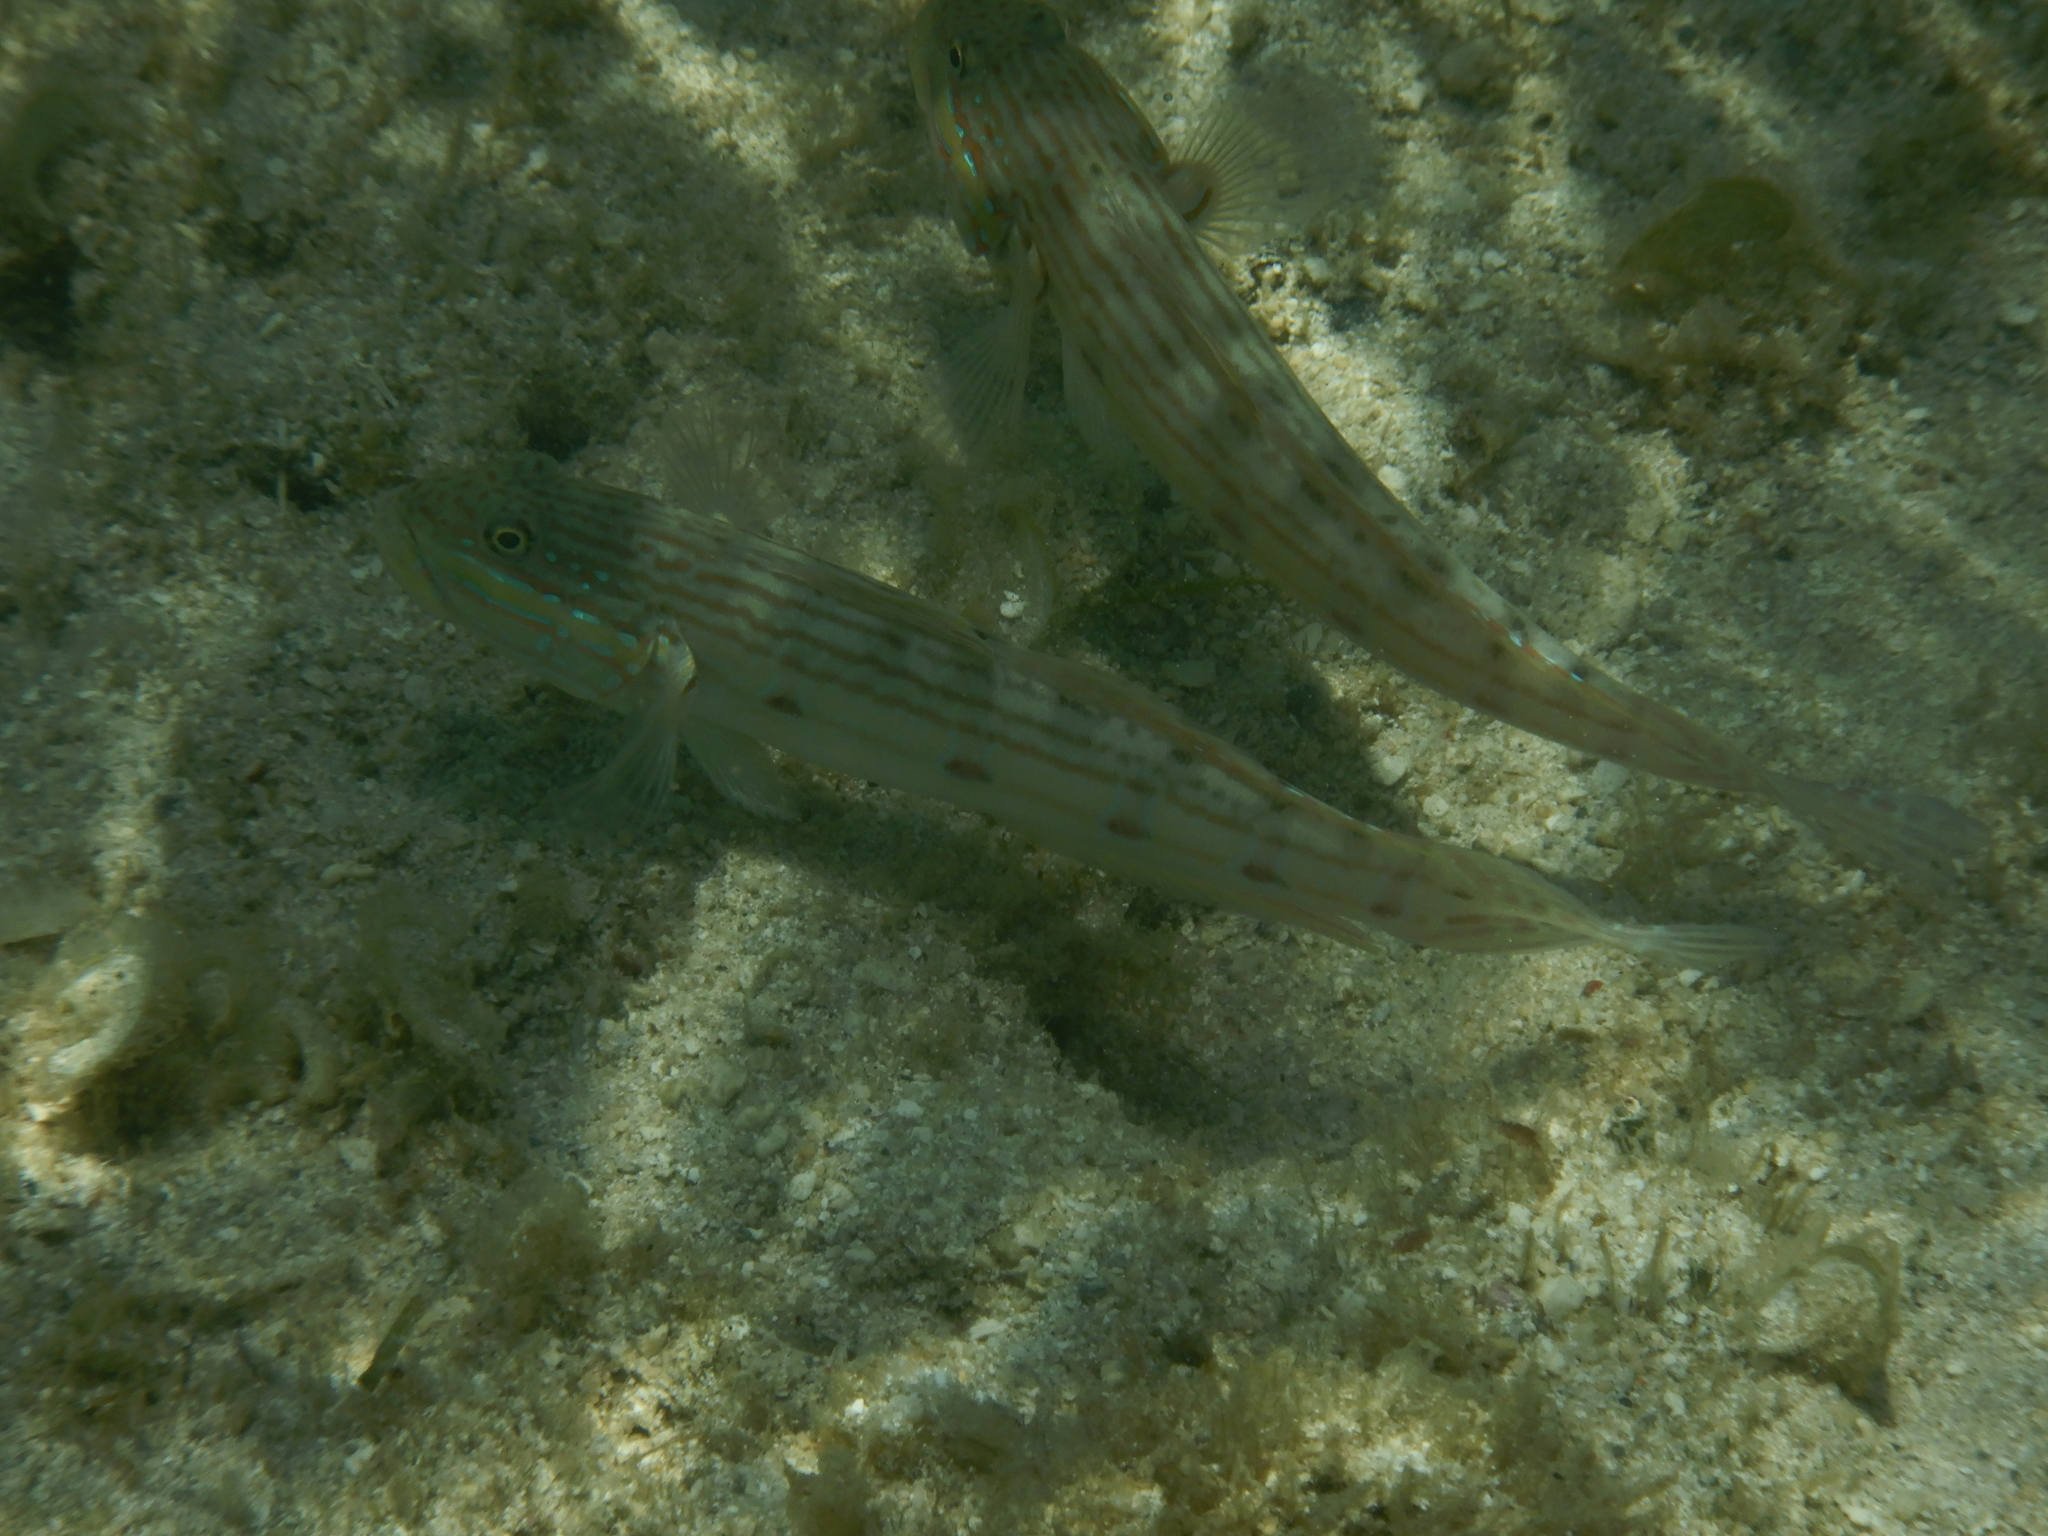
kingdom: Animalia
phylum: Chordata
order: Perciformes
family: Gobiidae
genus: Valenciennea
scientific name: Valenciennea longipinnis
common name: Longfinned goby
